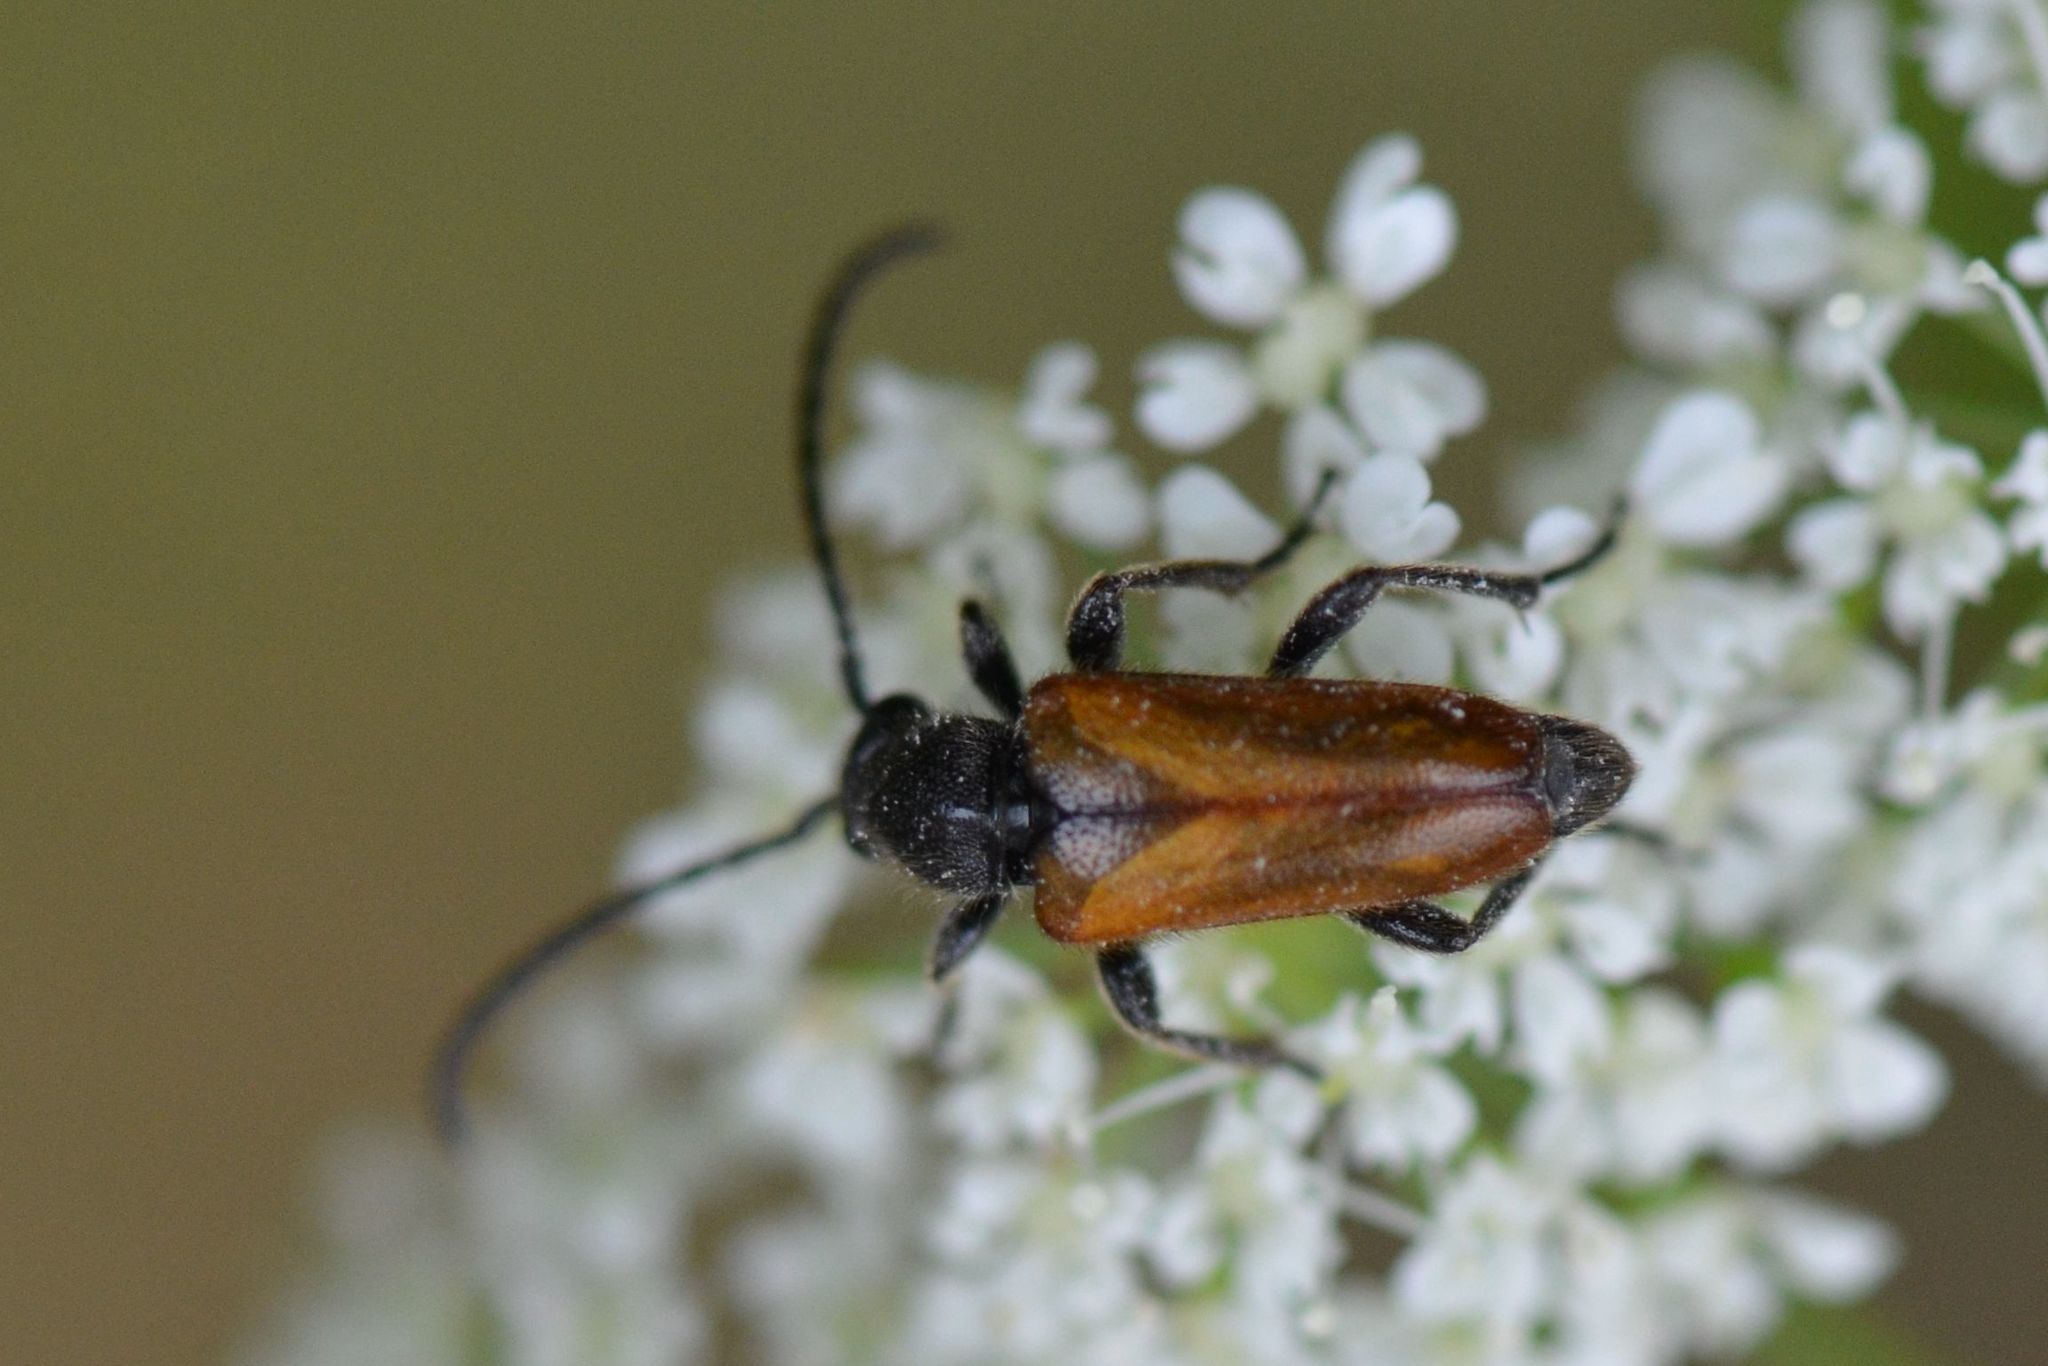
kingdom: Animalia
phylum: Arthropoda
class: Insecta
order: Coleoptera
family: Cerambycidae
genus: Pseudovadonia
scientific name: Pseudovadonia livida
